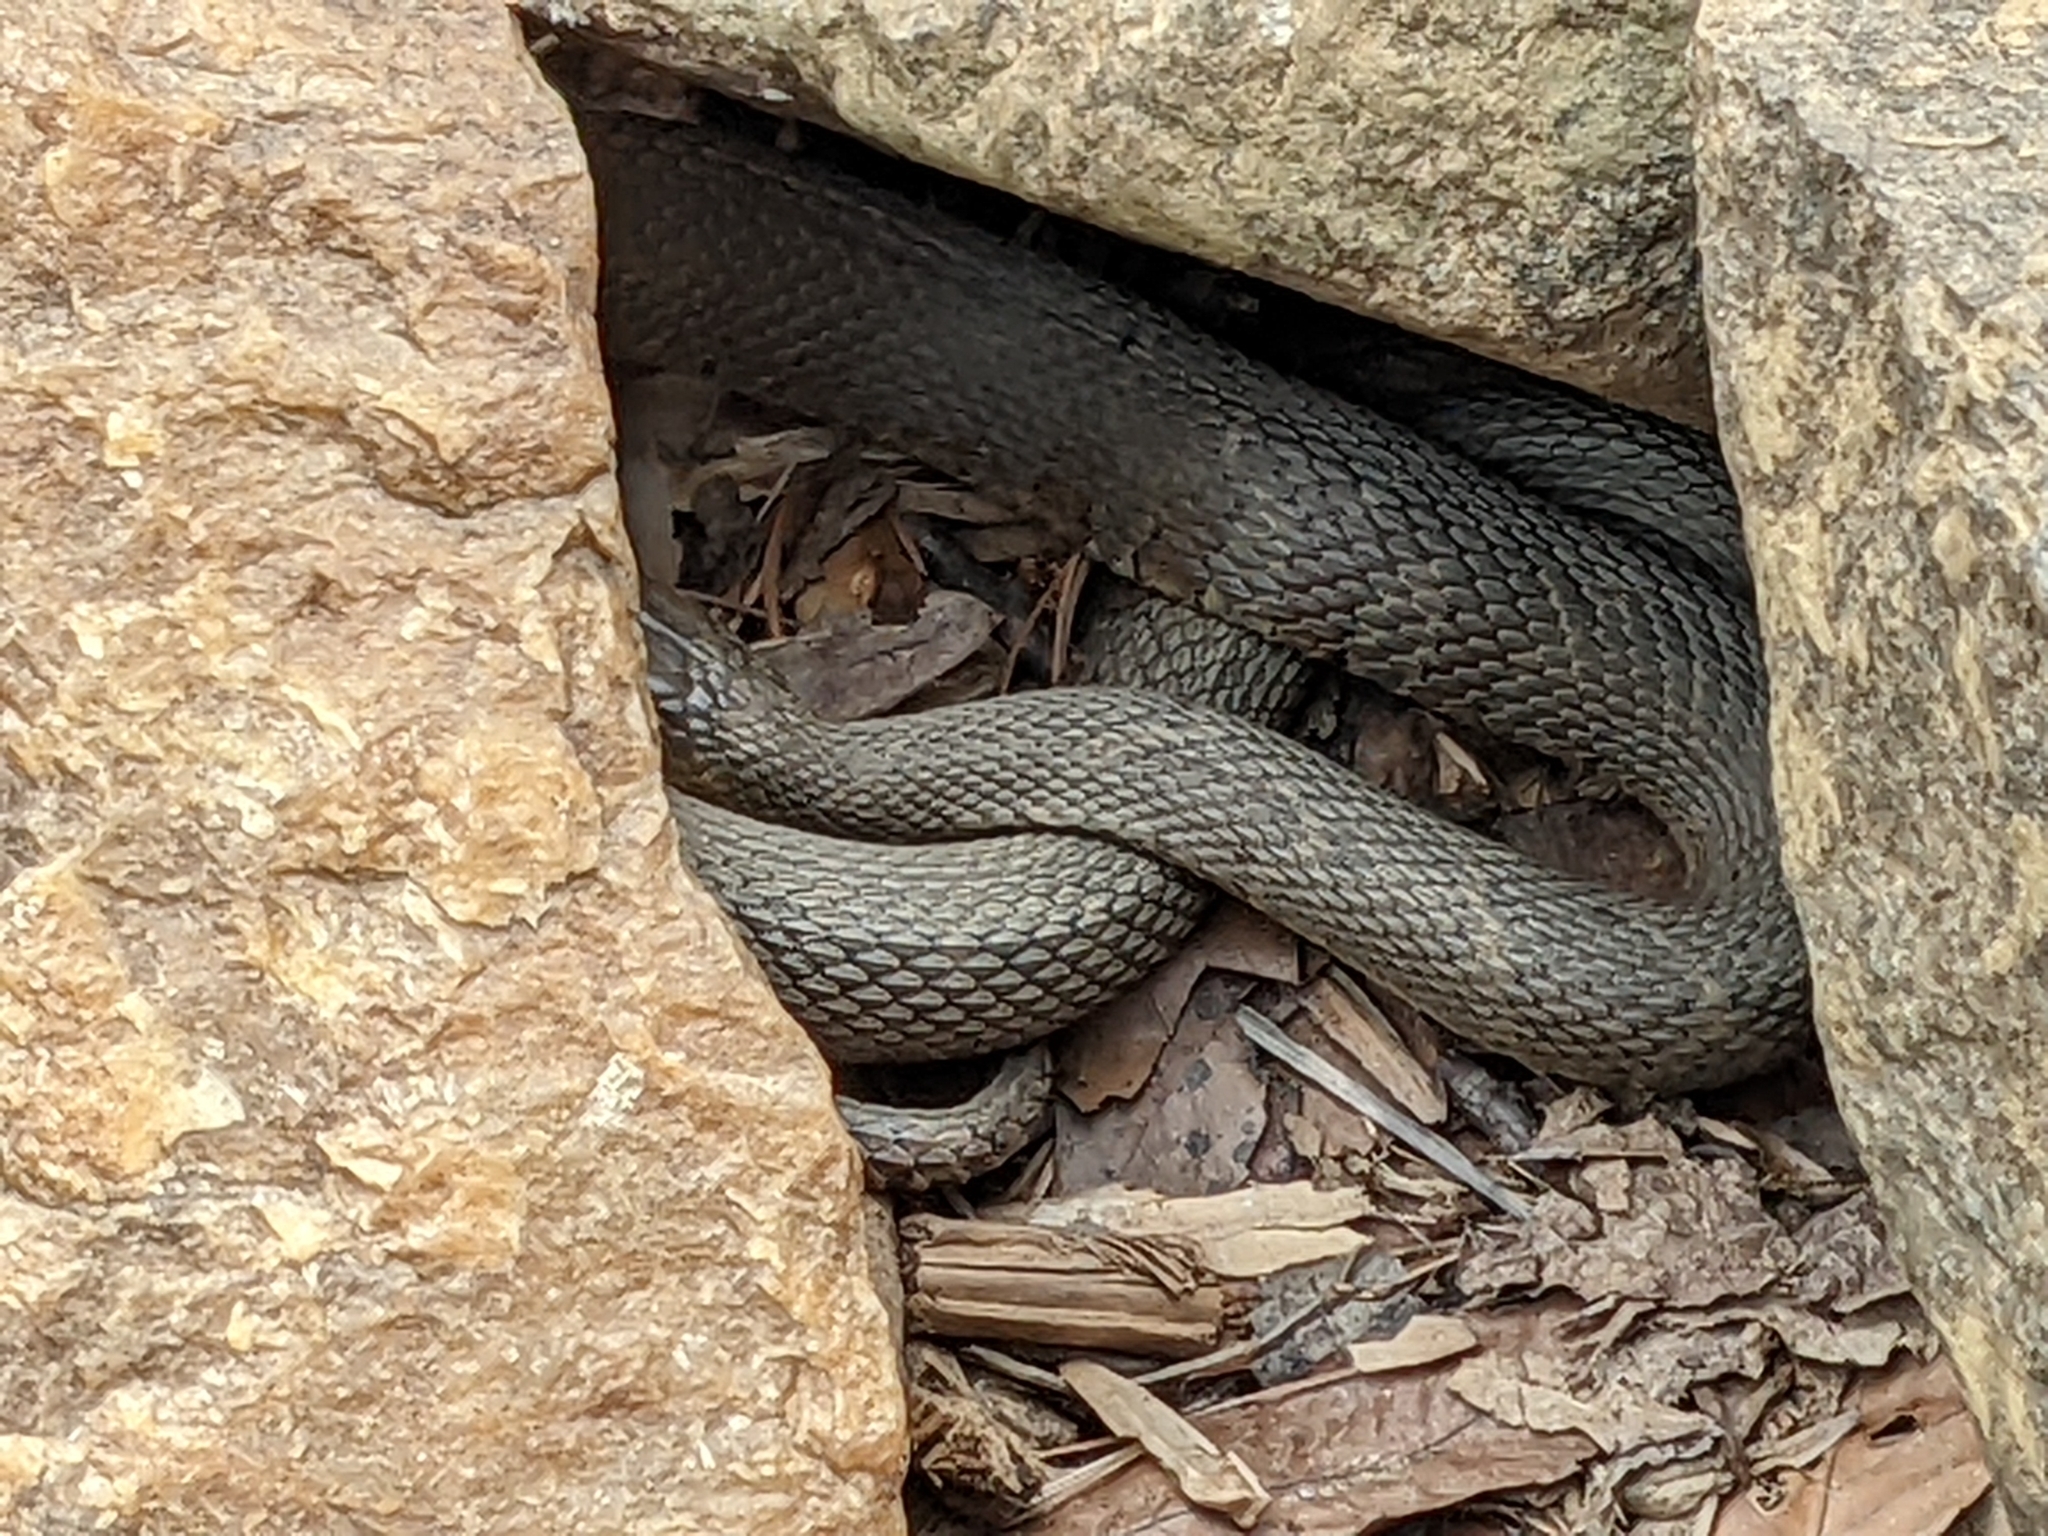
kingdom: Animalia
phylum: Chordata
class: Squamata
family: Colubridae
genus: Nerodia
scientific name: Nerodia sipedon
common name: Northern water snake
